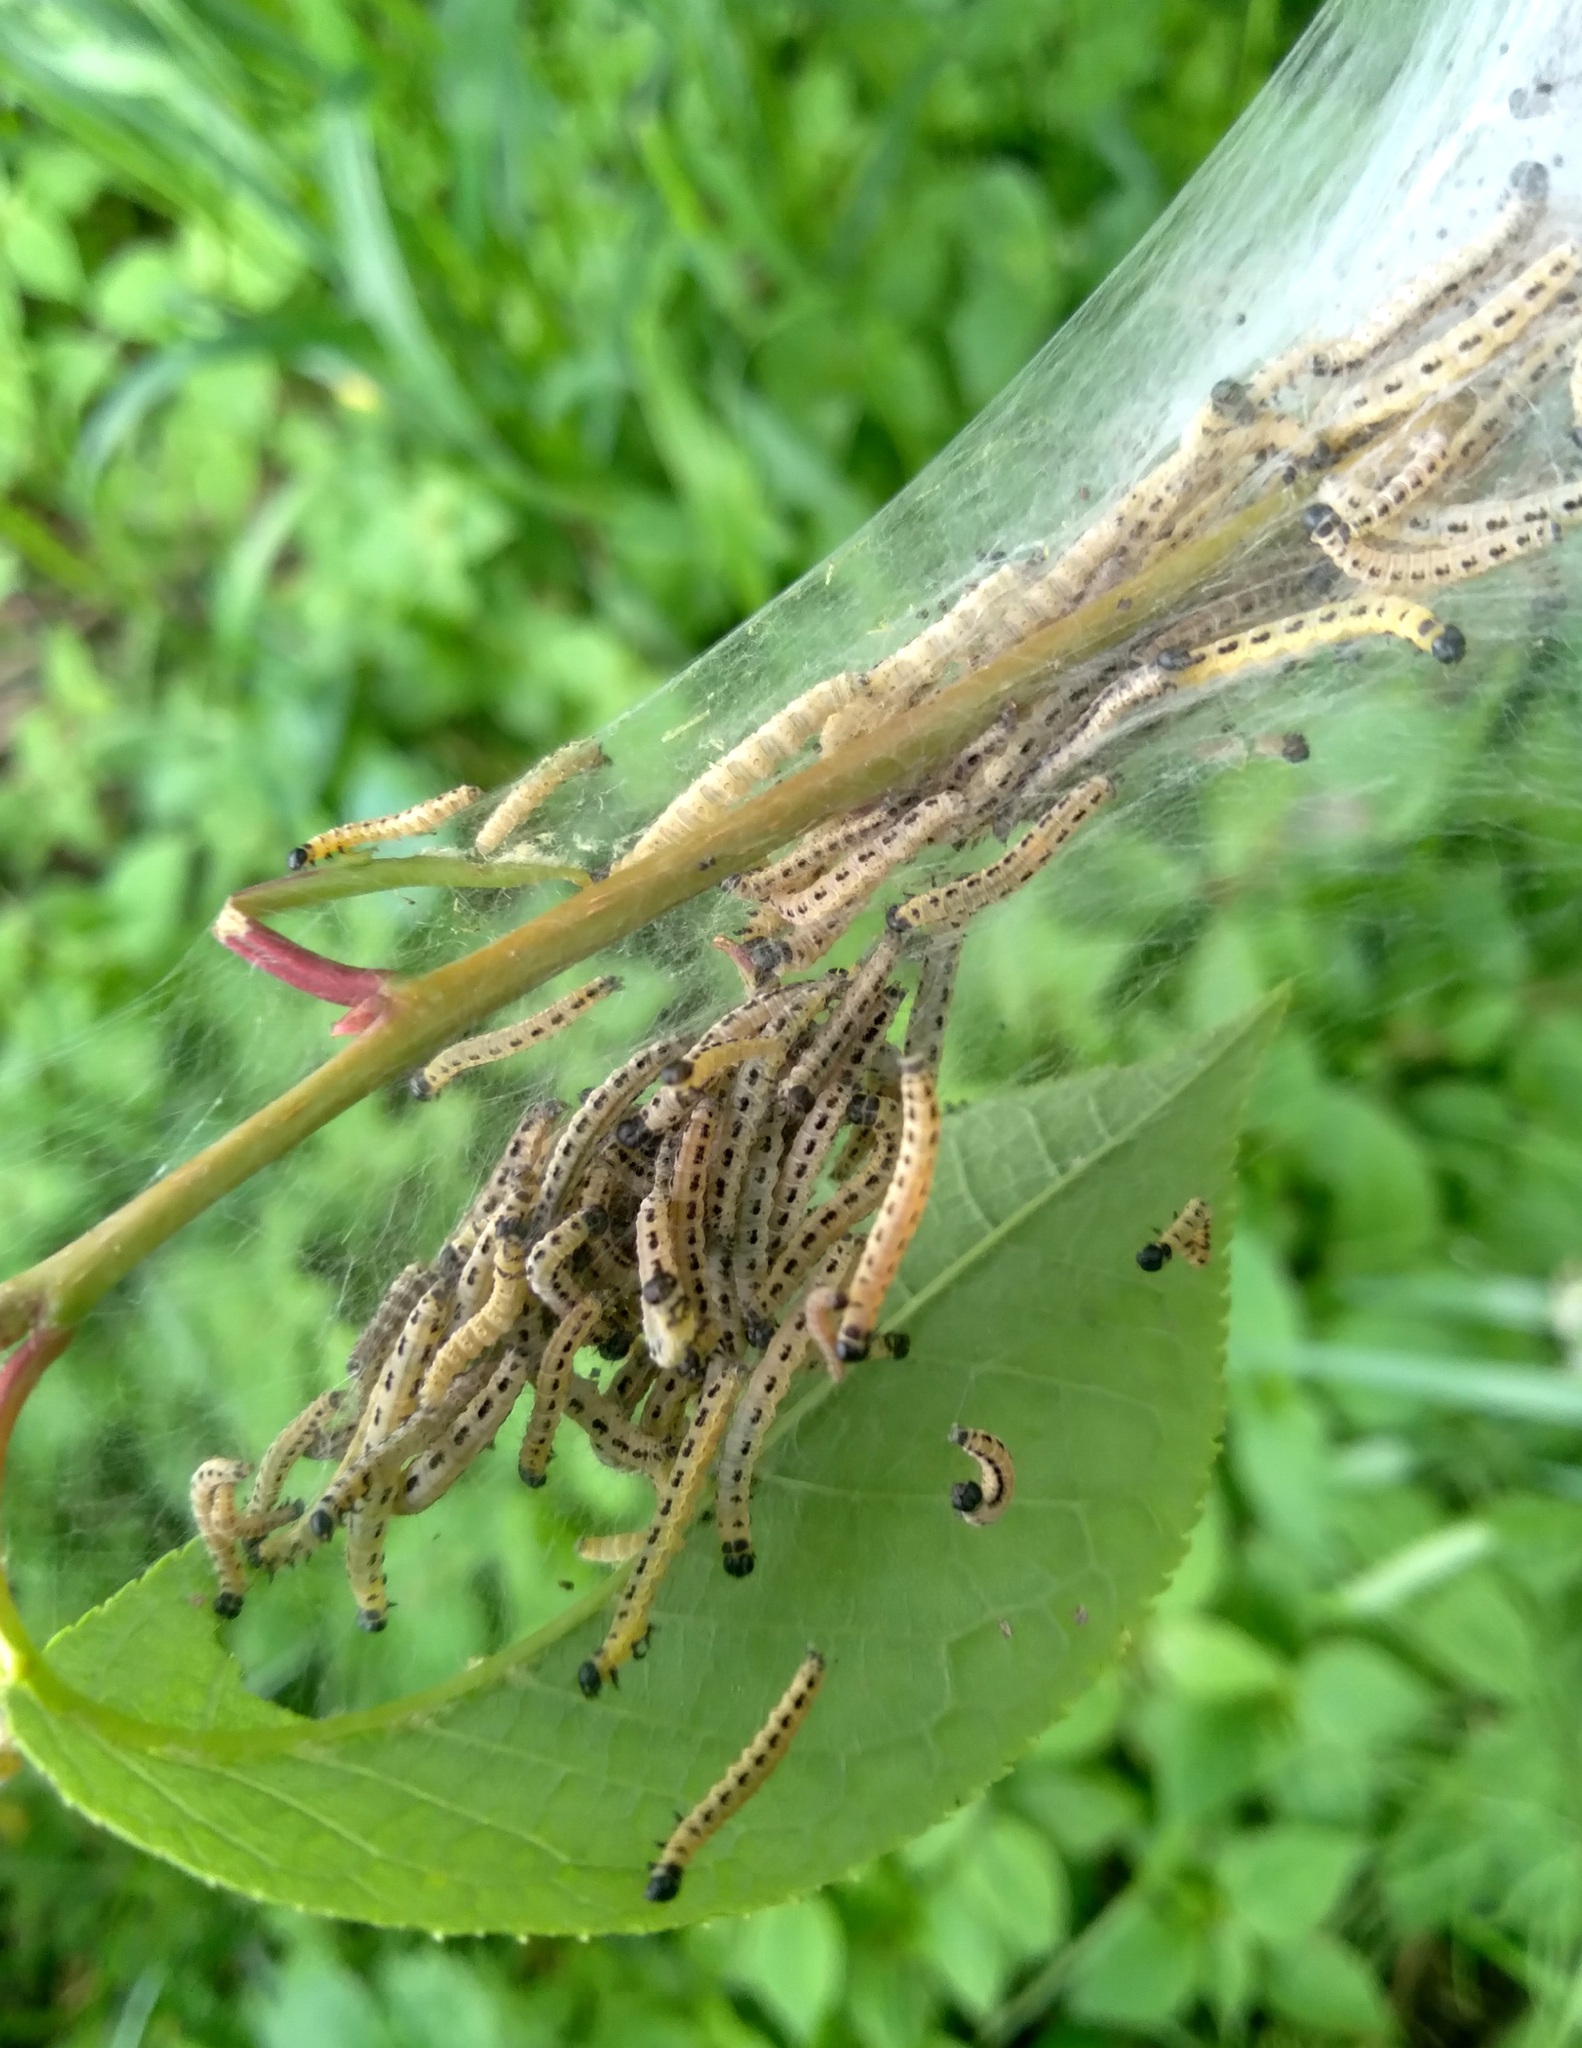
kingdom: Animalia
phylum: Arthropoda
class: Insecta
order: Lepidoptera
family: Yponomeutidae
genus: Yponomeuta
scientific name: Yponomeuta evonymella
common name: Bird-cherry ermine
